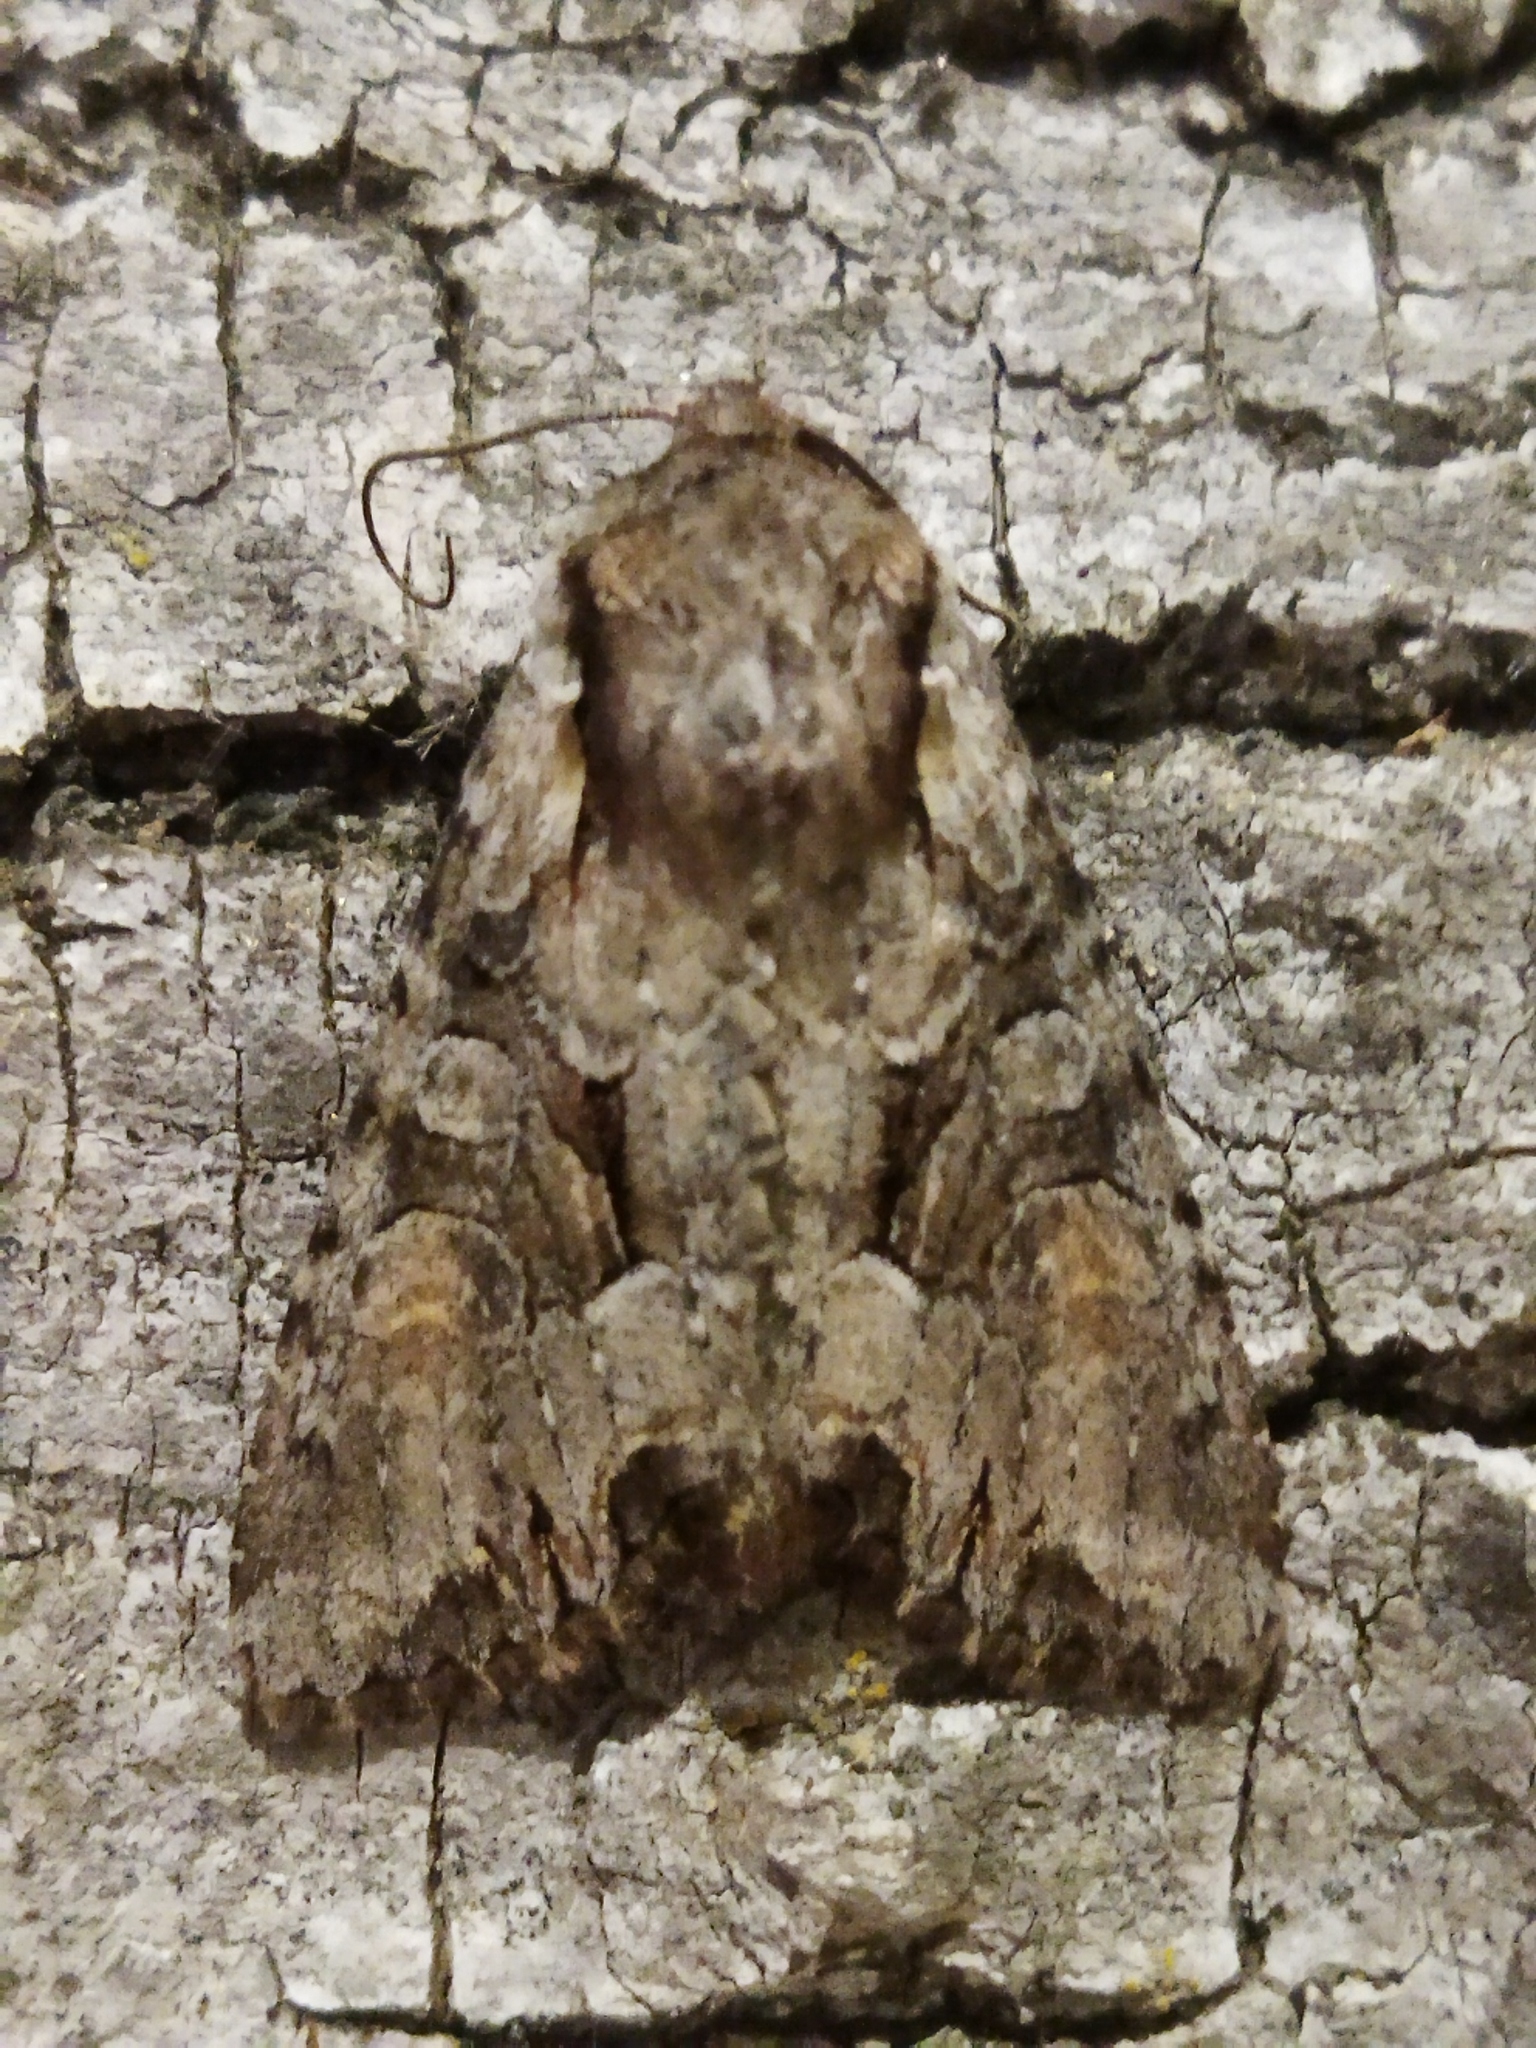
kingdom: Animalia
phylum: Arthropoda
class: Insecta
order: Lepidoptera
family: Noctuidae
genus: Lacanobia
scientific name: Lacanobia w-latinum
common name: Light brocade
